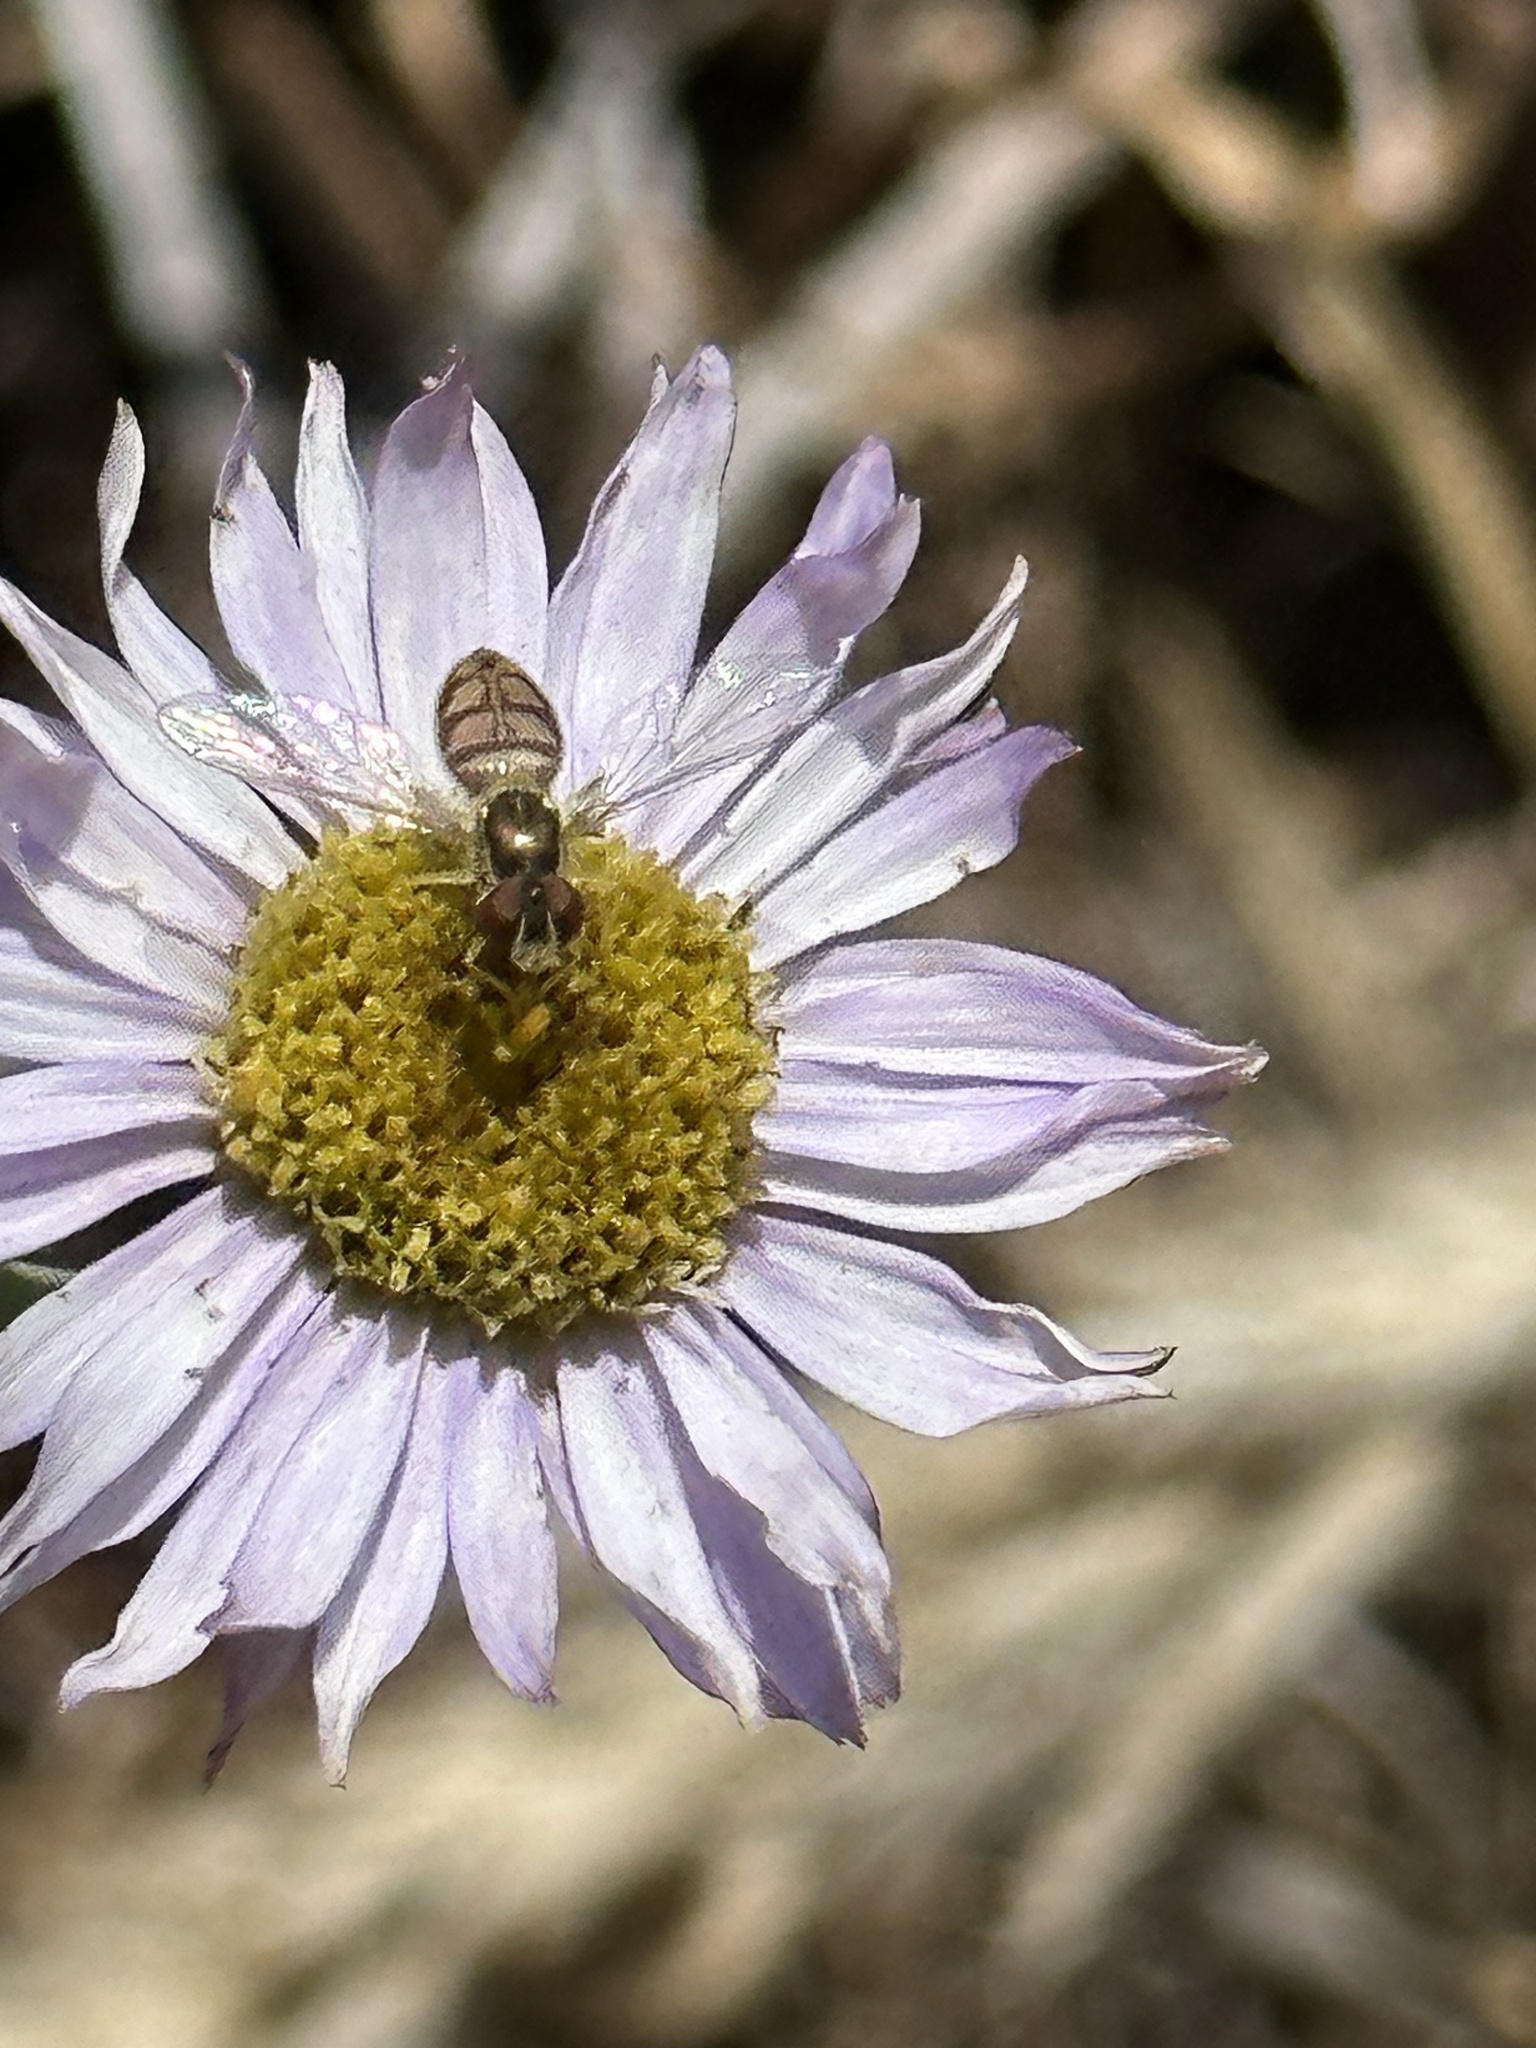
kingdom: Animalia
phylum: Arthropoda
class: Insecta
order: Diptera
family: Syrphidae
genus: Toxomerus
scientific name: Toxomerus marginatus
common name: Syrphid fly
